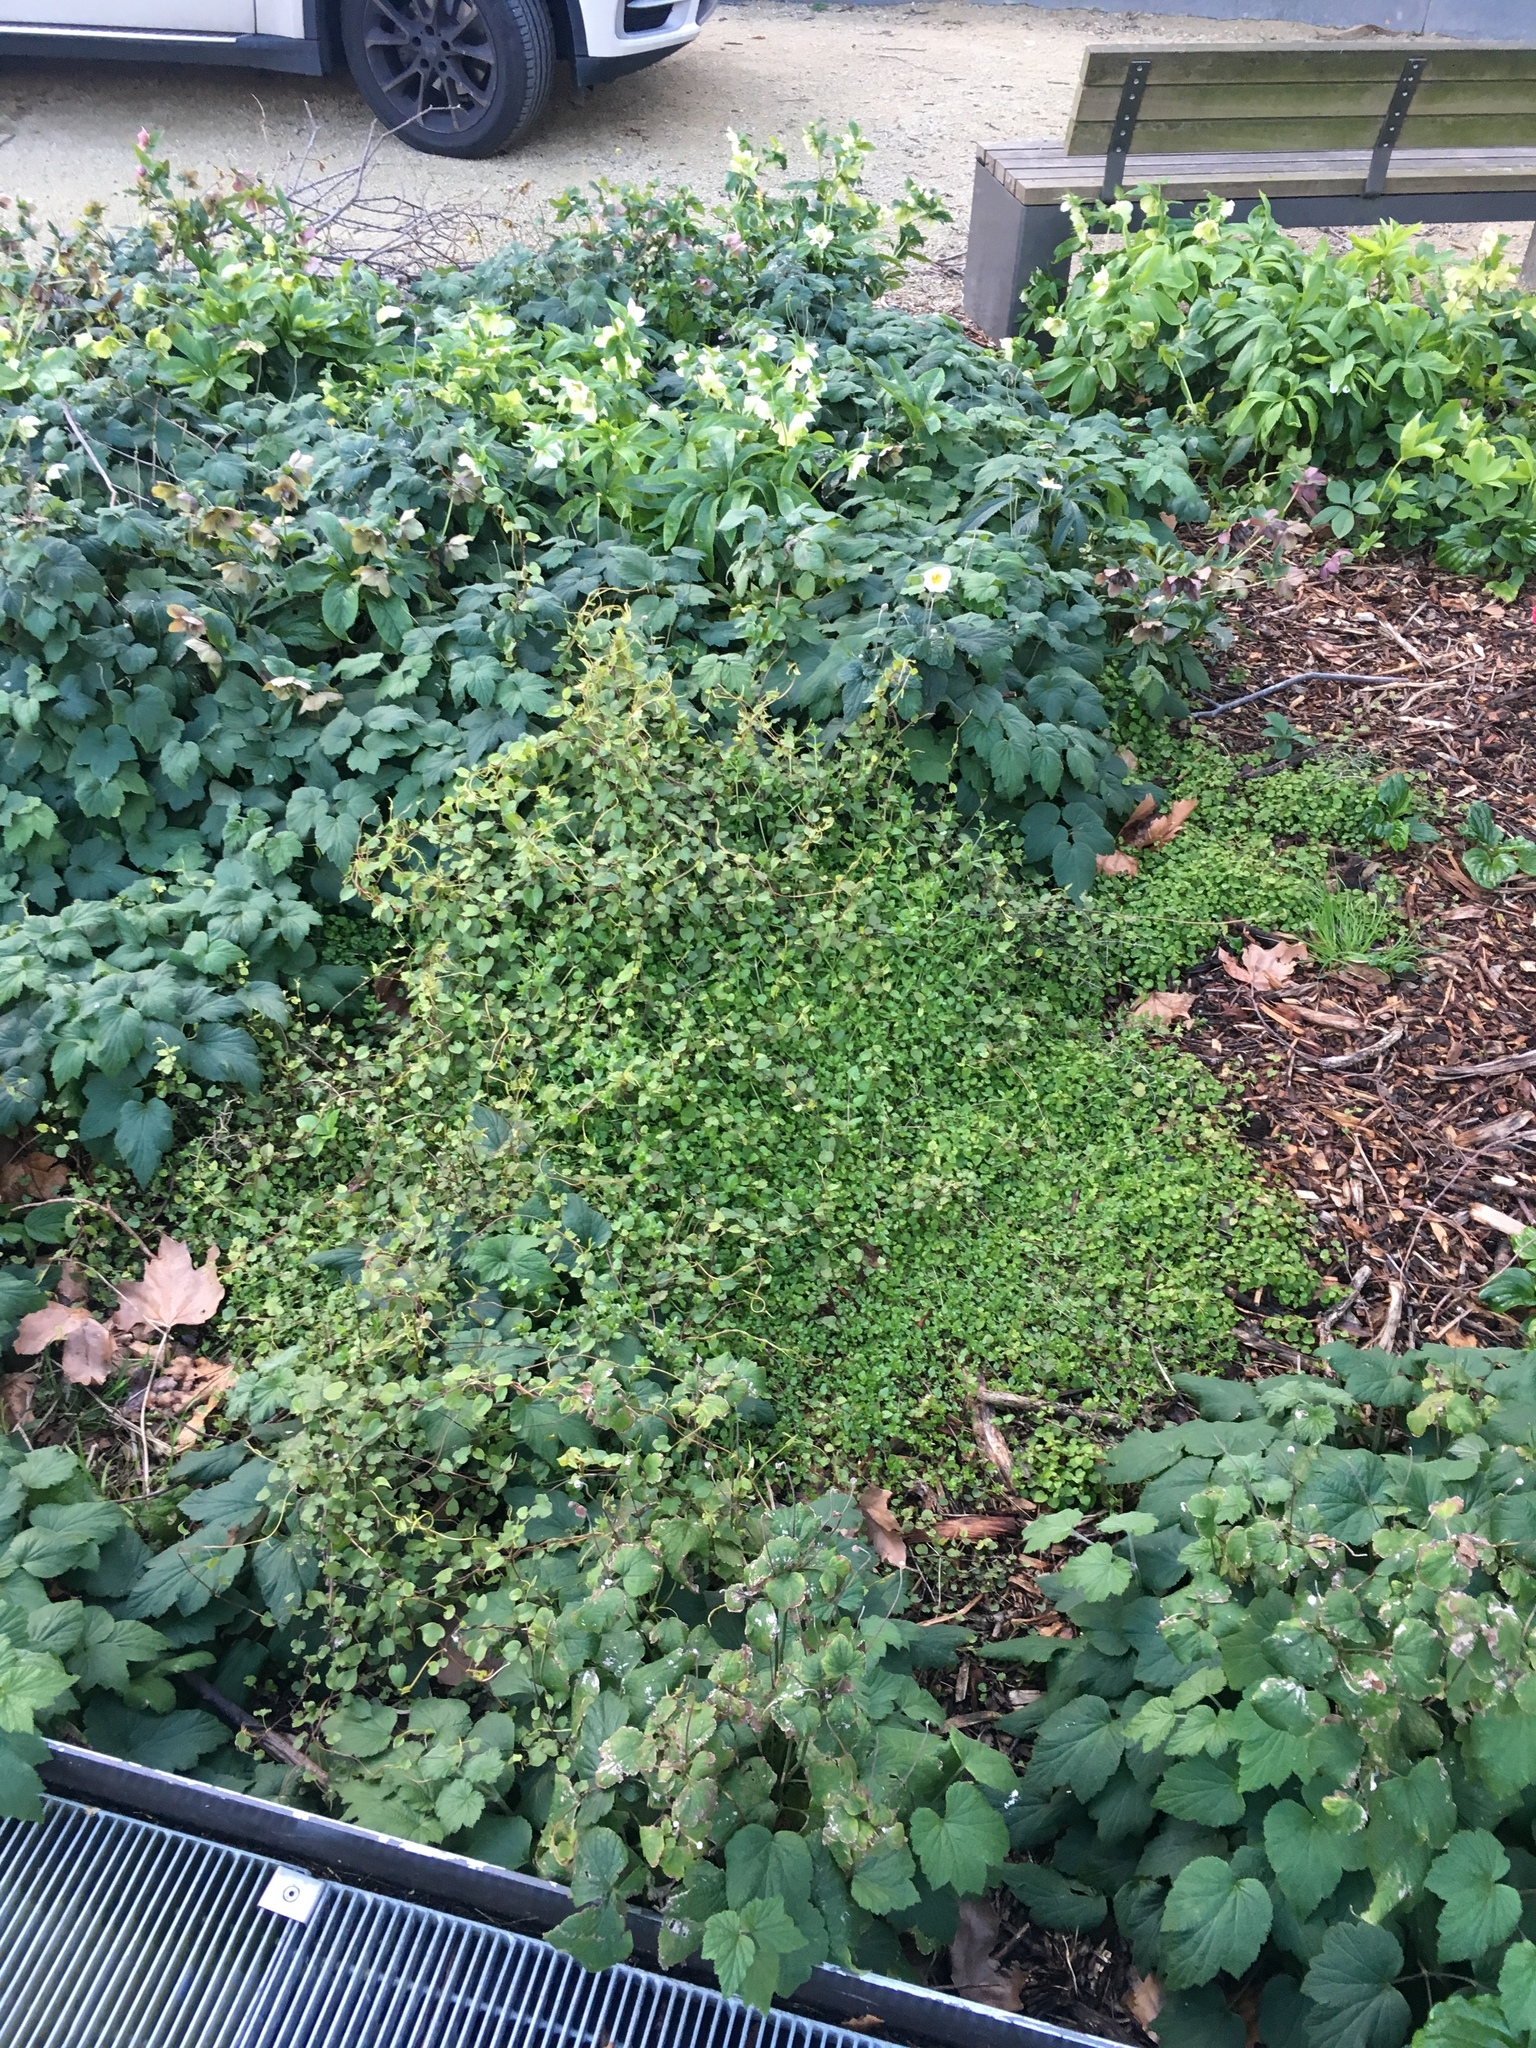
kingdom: Plantae
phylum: Tracheophyta
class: Magnoliopsida
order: Caryophyllales
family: Polygonaceae
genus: Muehlenbeckia
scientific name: Muehlenbeckia australis
